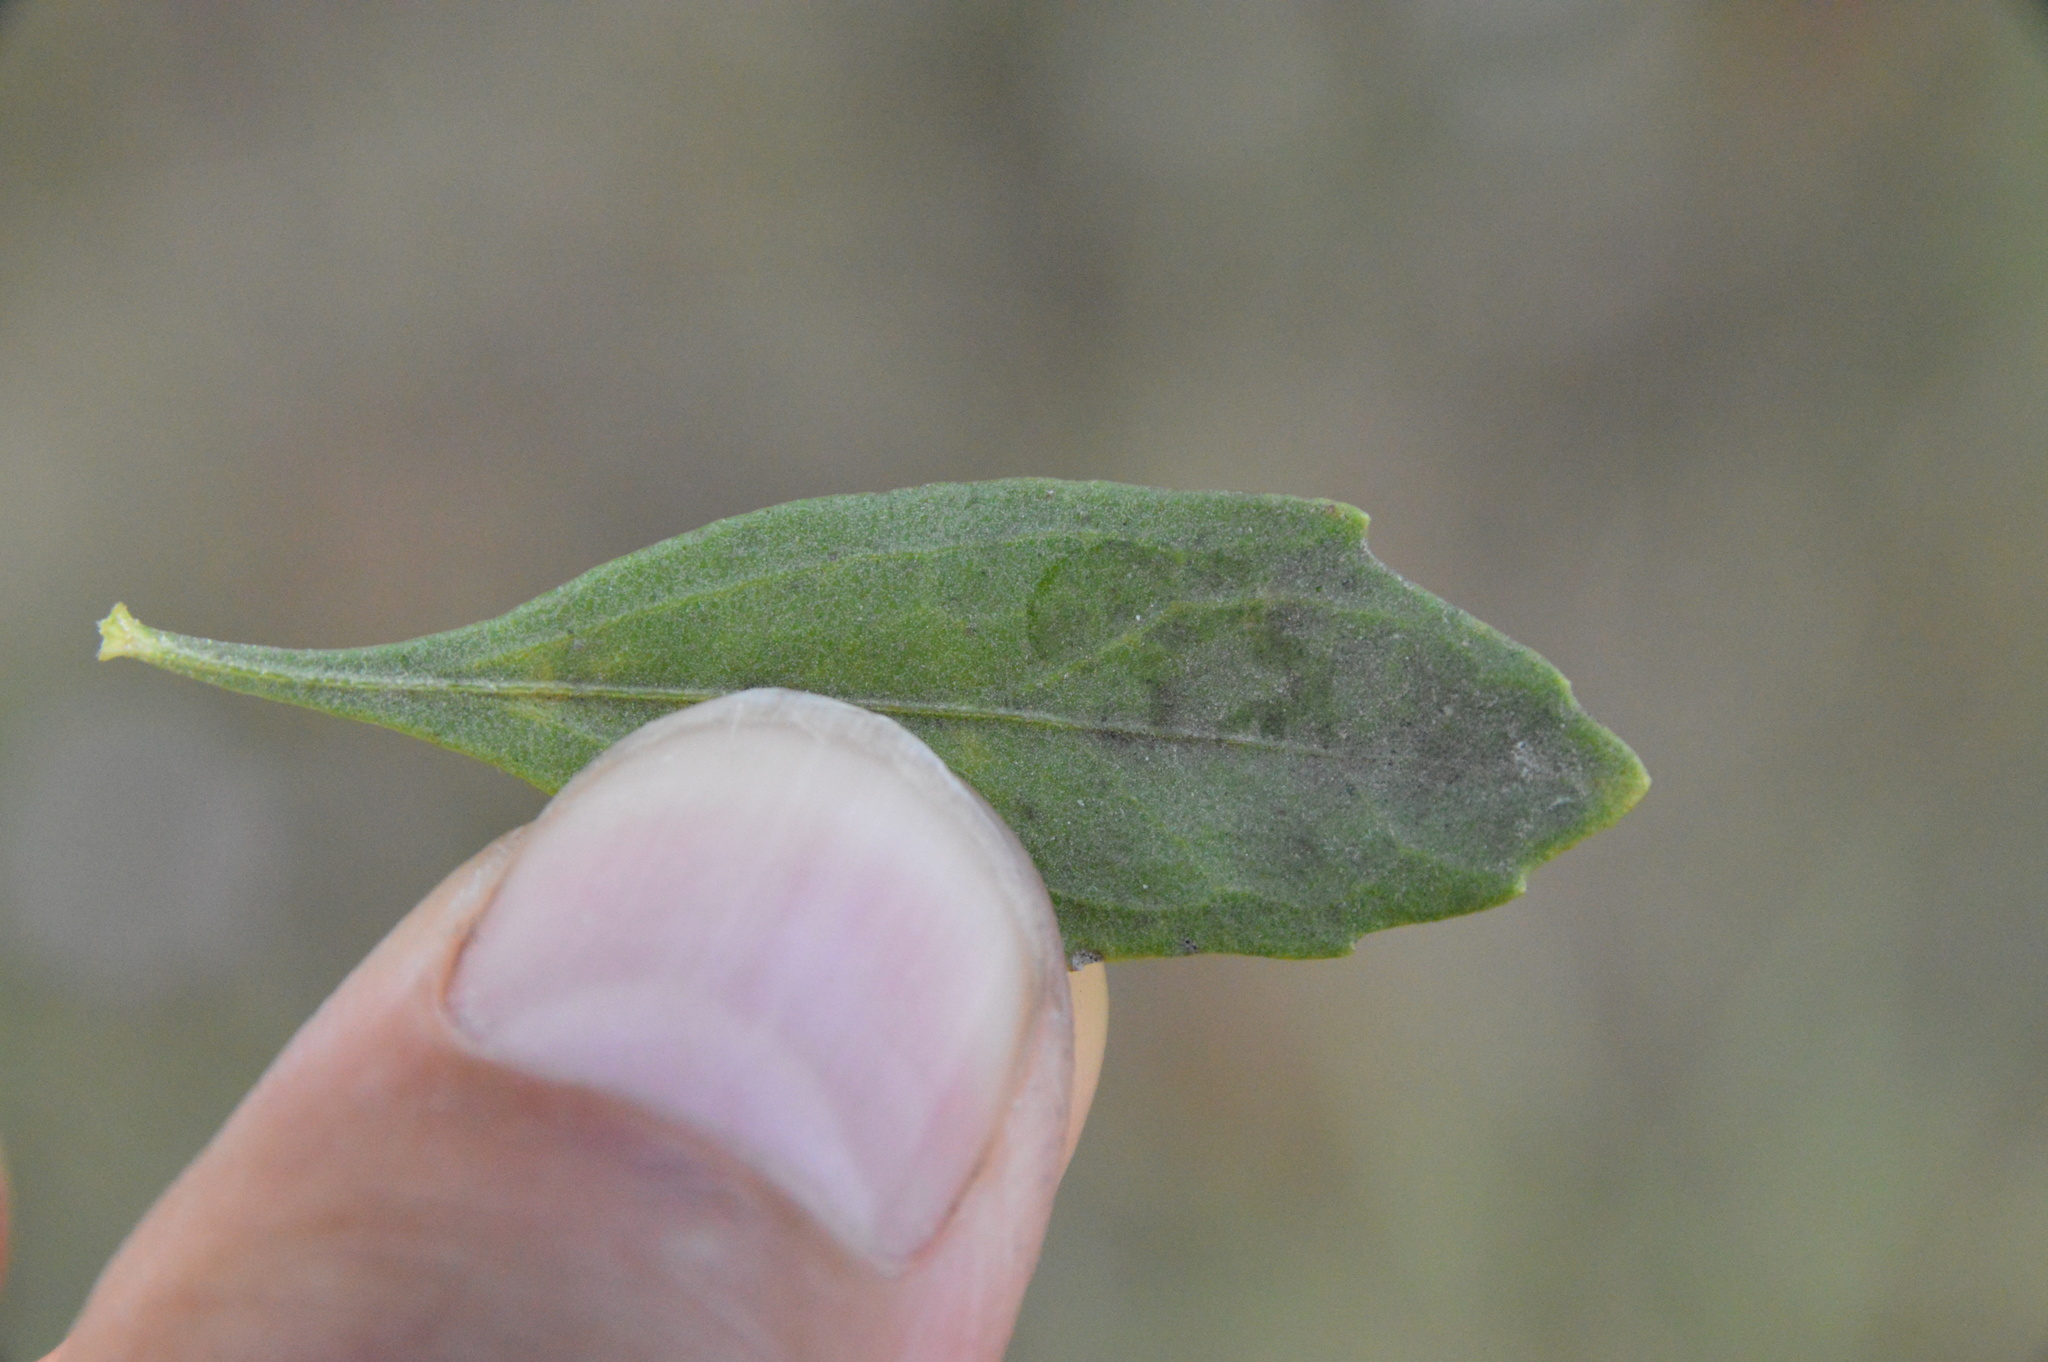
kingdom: Plantae
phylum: Tracheophyta
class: Magnoliopsida
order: Asterales
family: Asteraceae
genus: Baccharis
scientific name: Baccharis halimifolia
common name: Eastern baccharis
